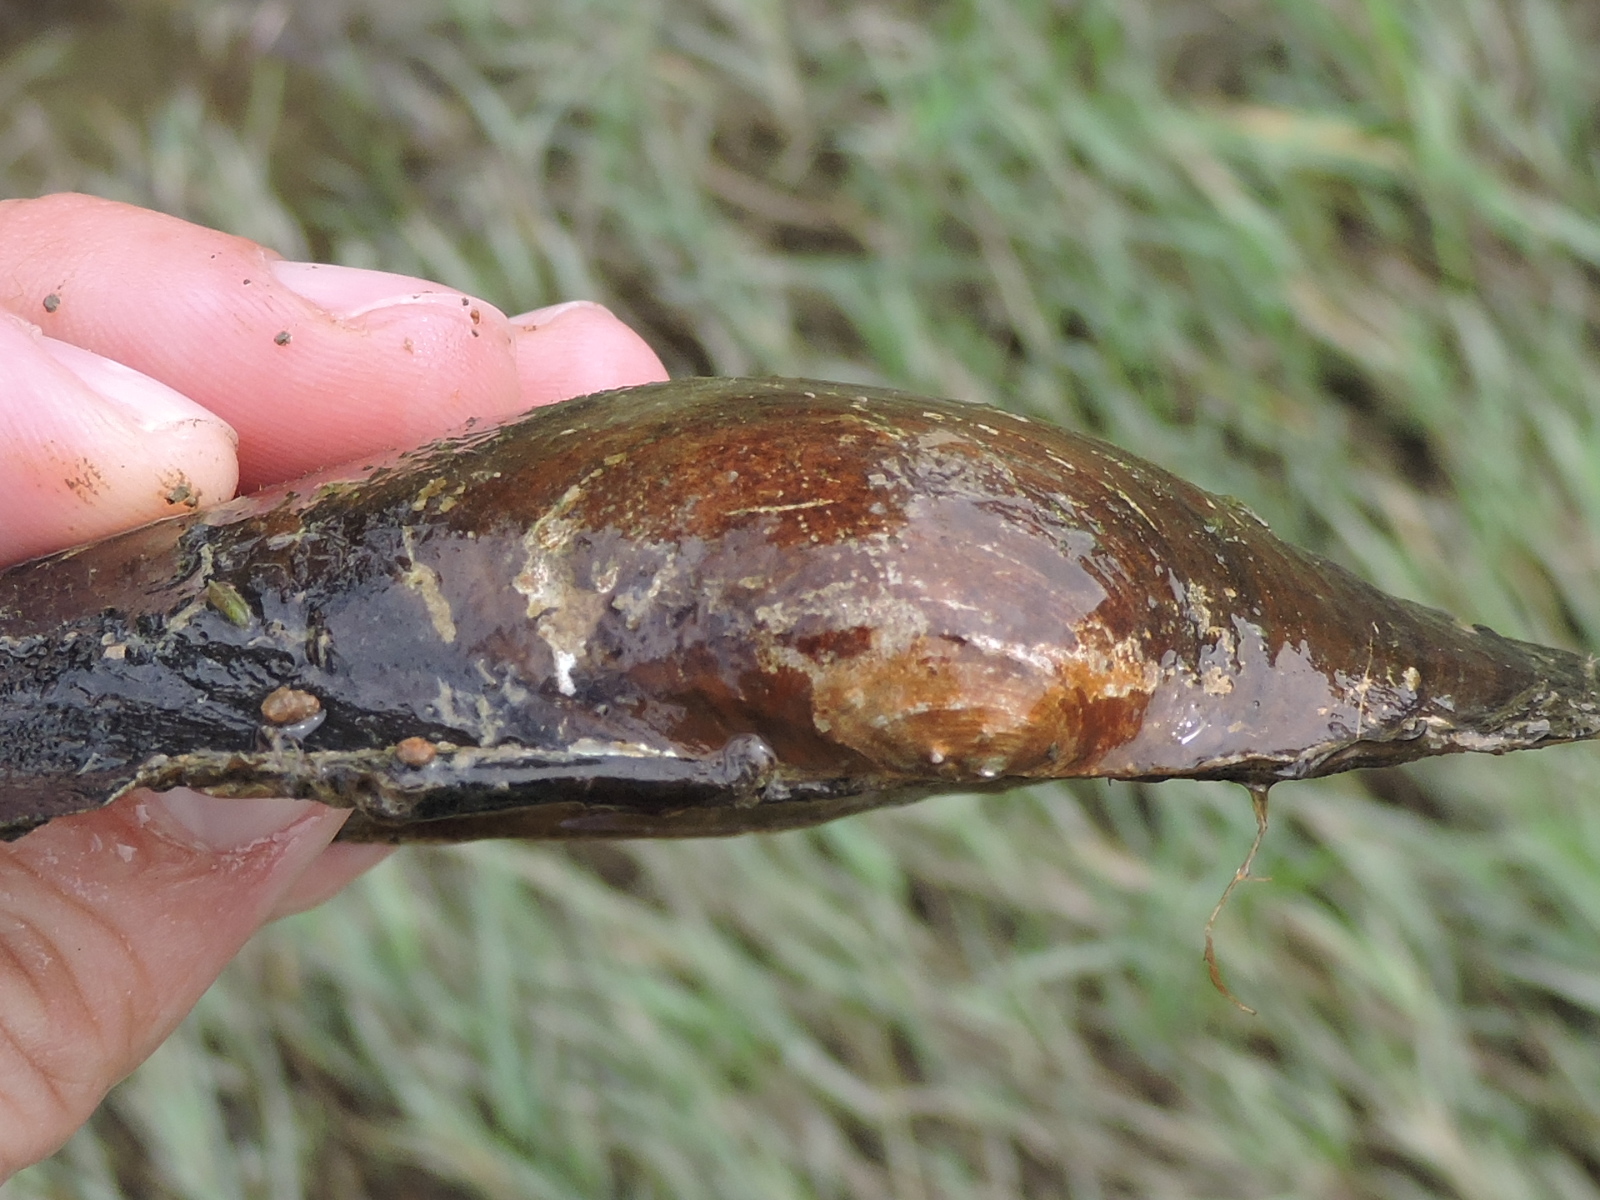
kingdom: Animalia
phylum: Mollusca
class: Bivalvia
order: Unionida
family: Unionidae
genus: Pyganodon
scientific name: Pyganodon grandis
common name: Giant floater
